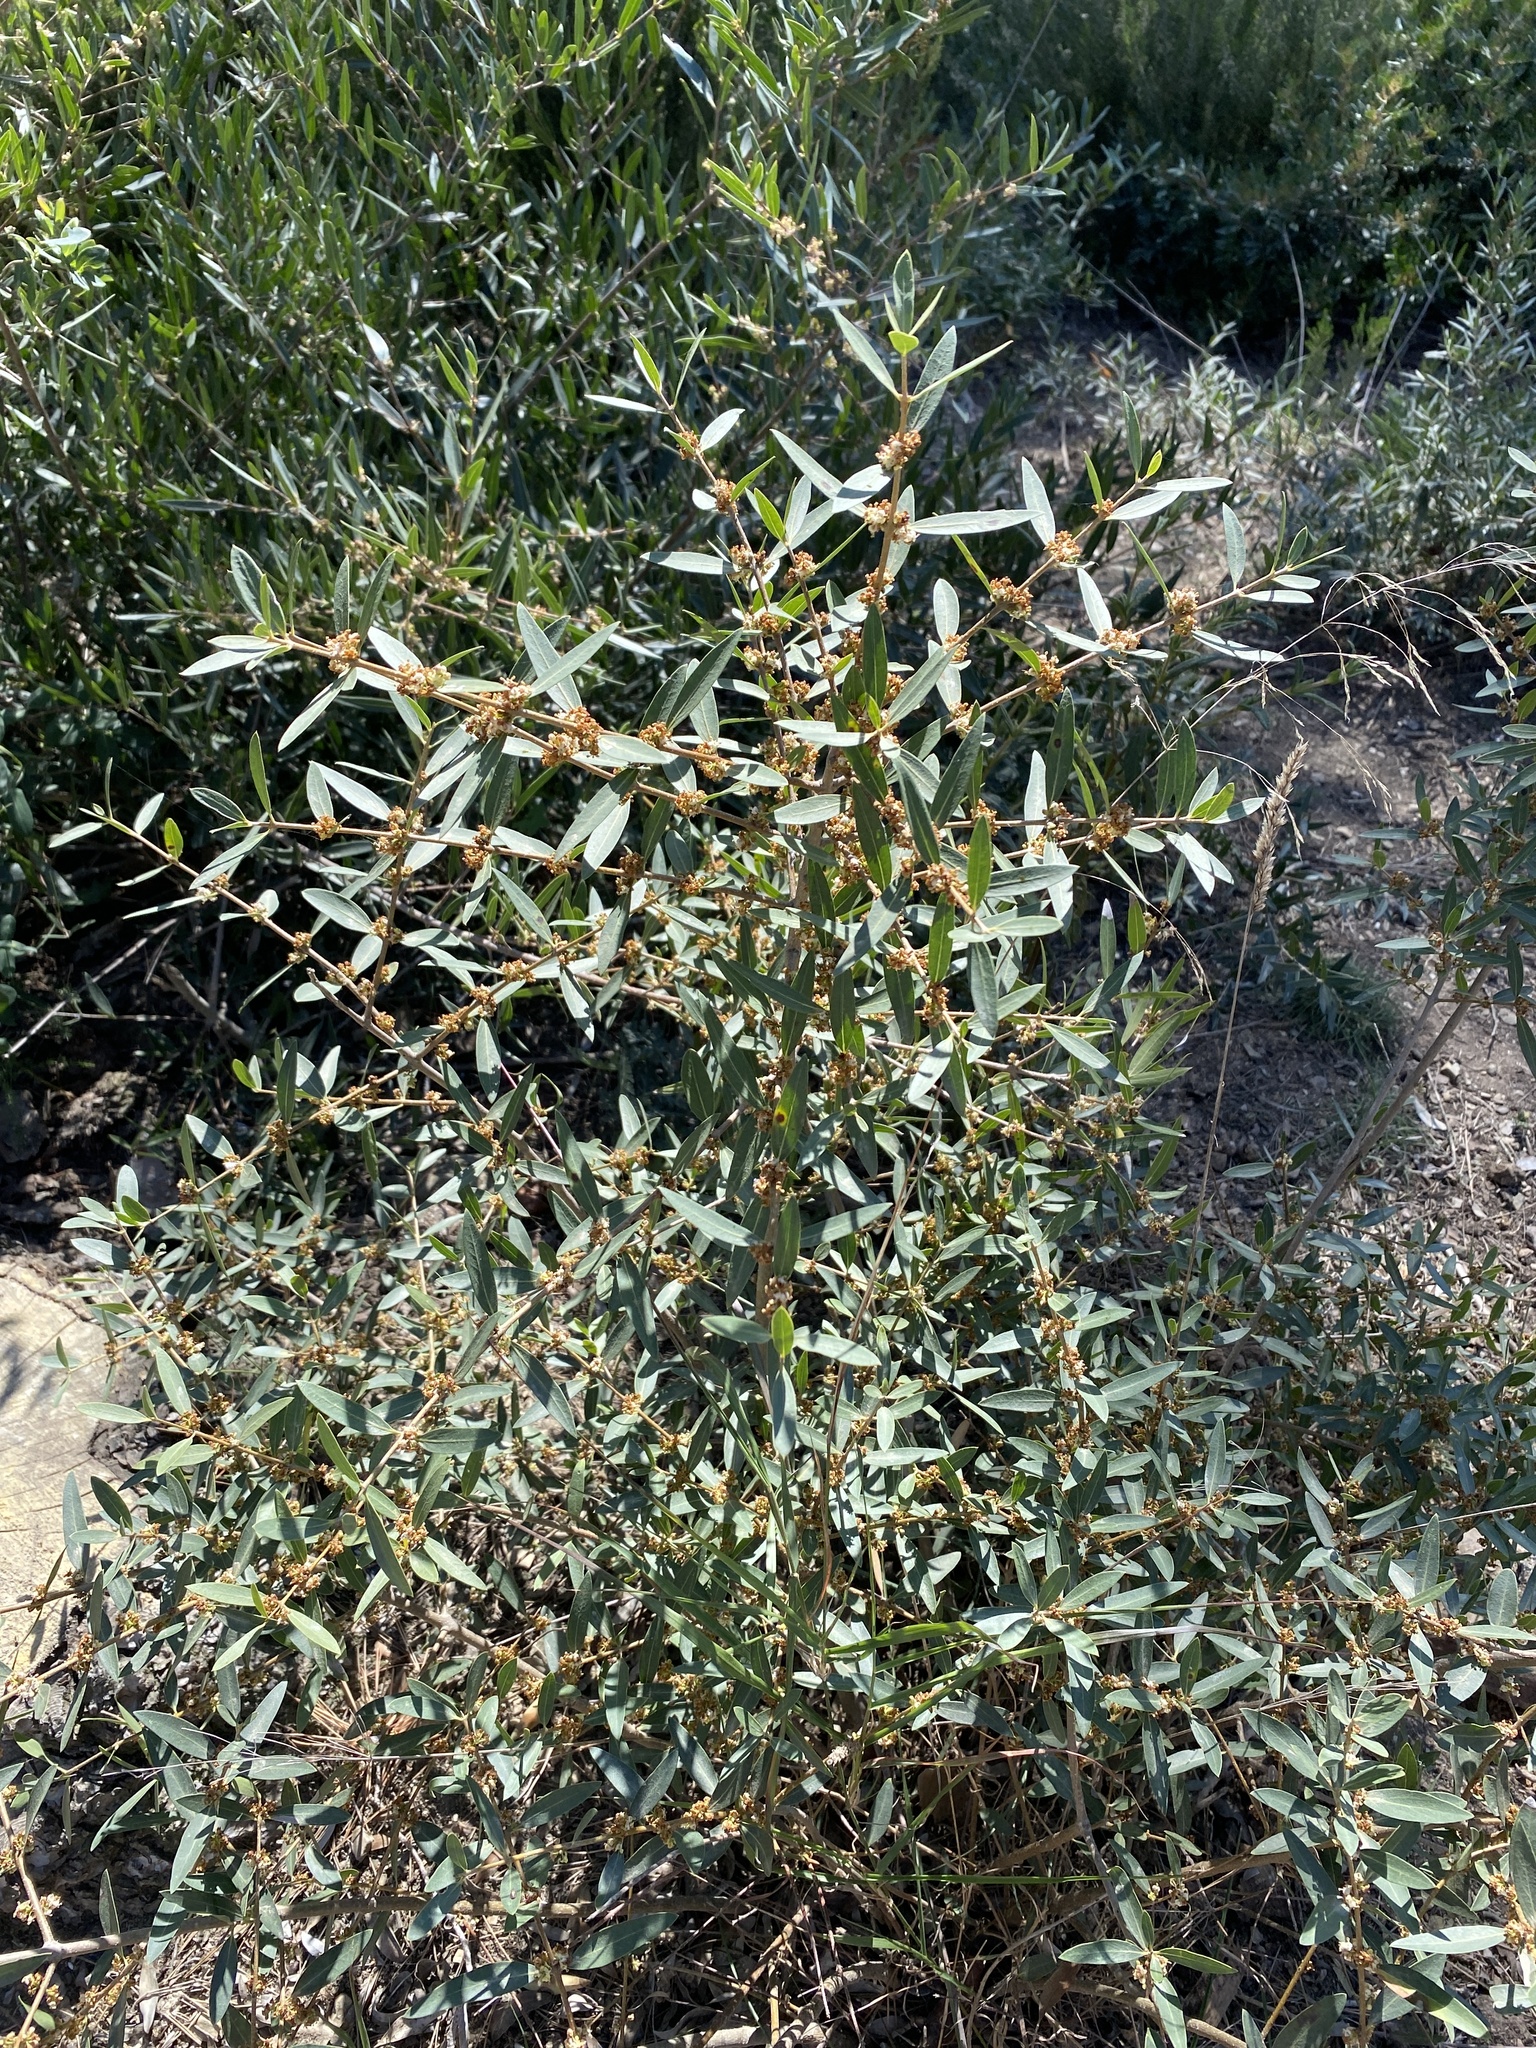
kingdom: Plantae
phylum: Tracheophyta
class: Magnoliopsida
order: Lamiales
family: Oleaceae
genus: Phillyrea
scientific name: Phillyrea angustifolia
